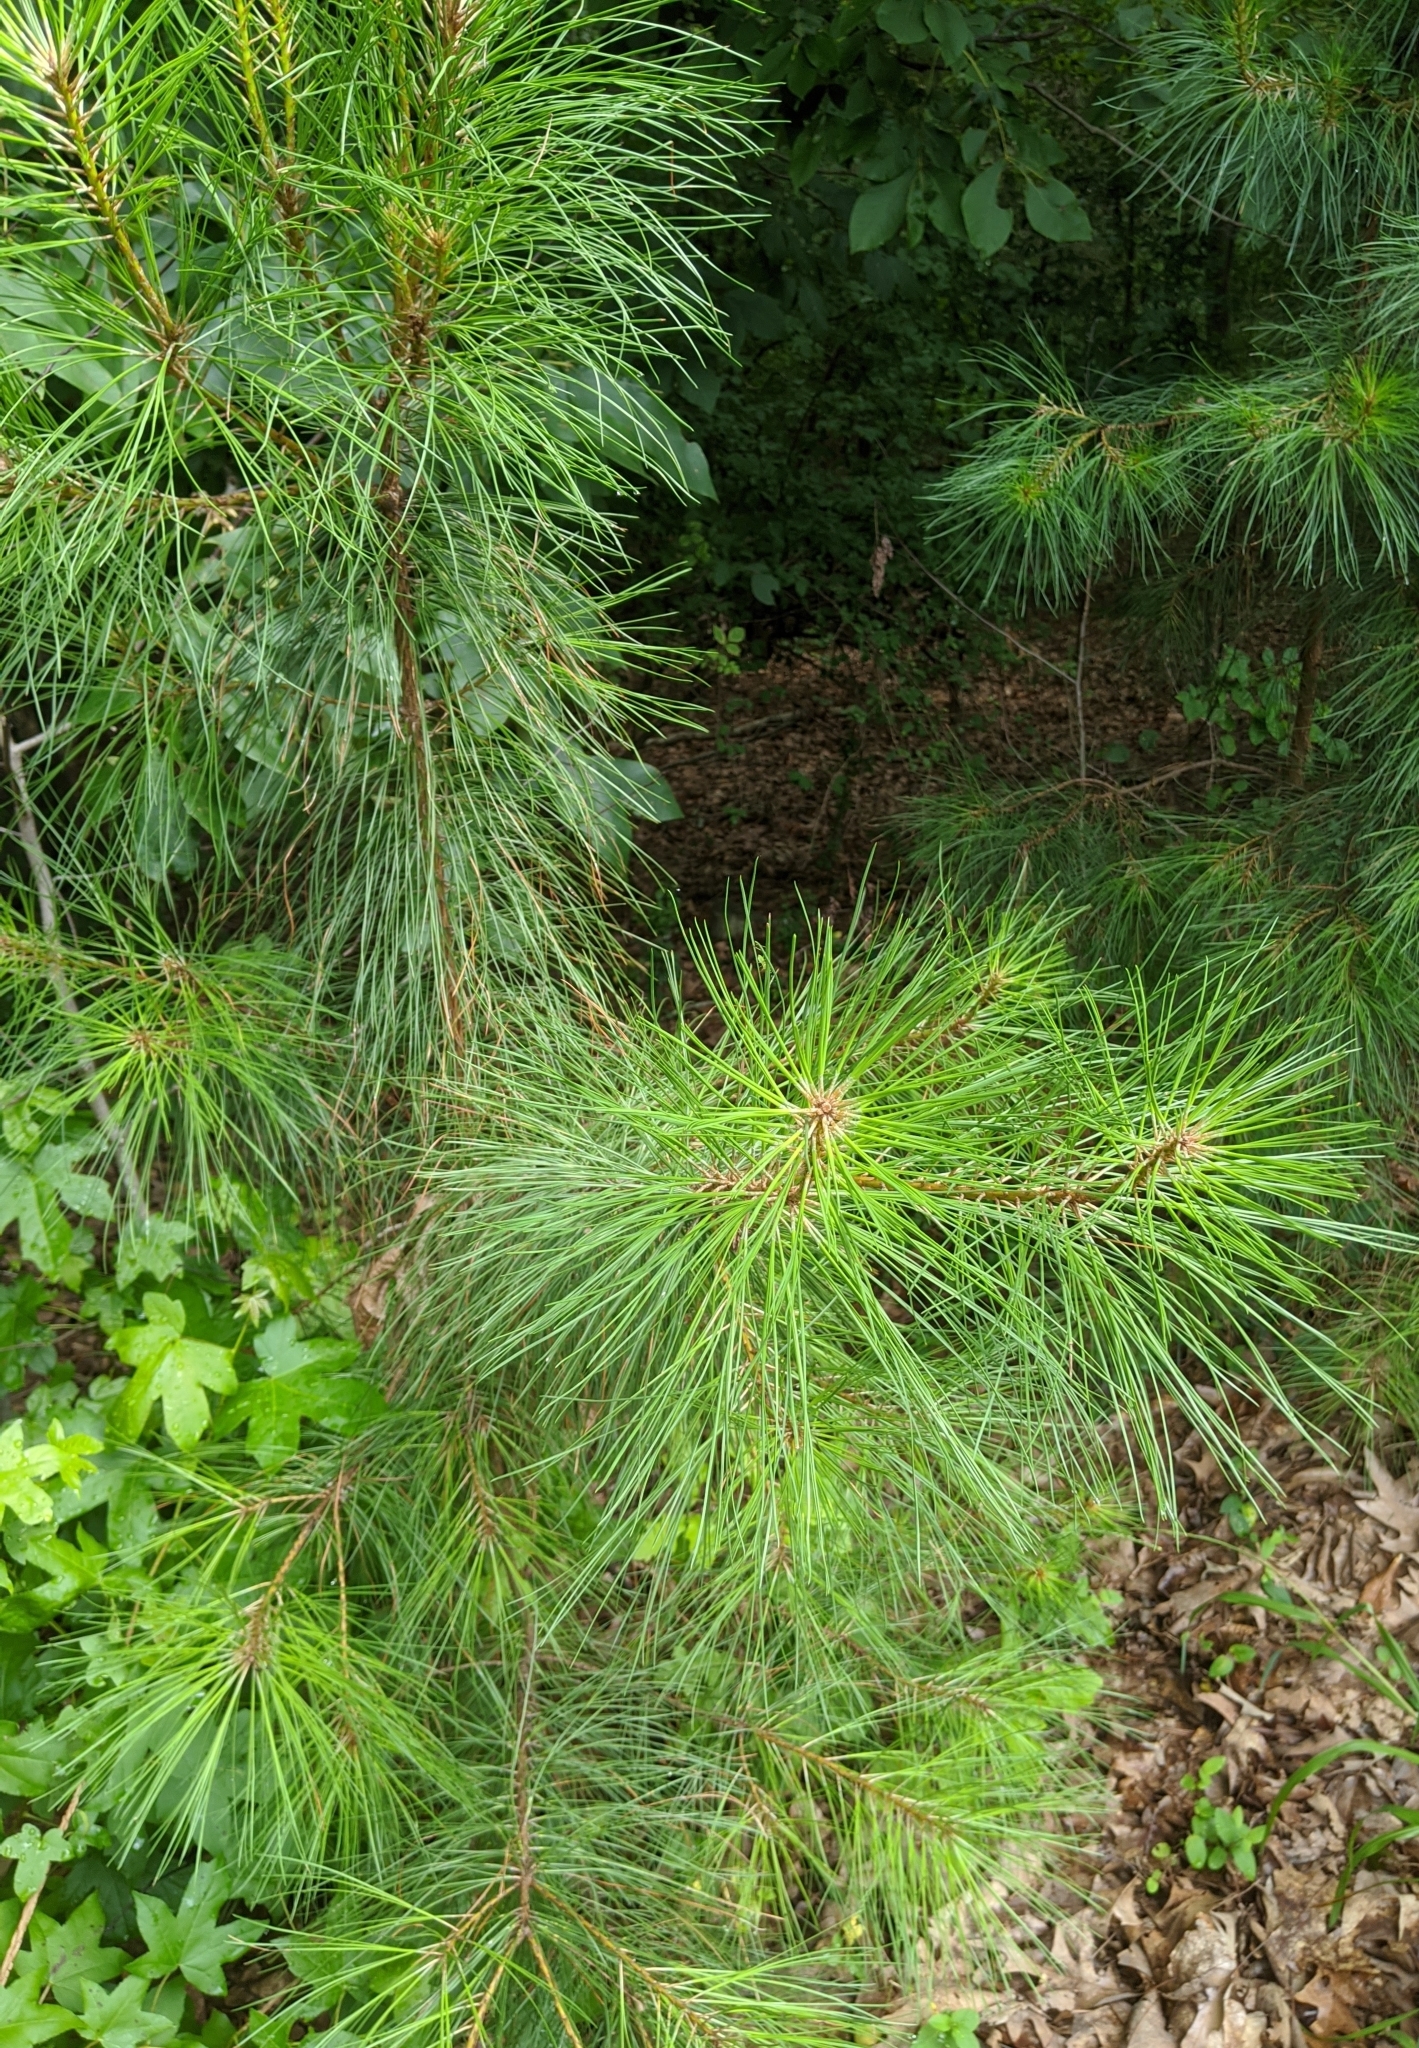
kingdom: Plantae
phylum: Tracheophyta
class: Pinopsida
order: Pinales
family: Pinaceae
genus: Pinus
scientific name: Pinus taeda
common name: Loblolly pine
